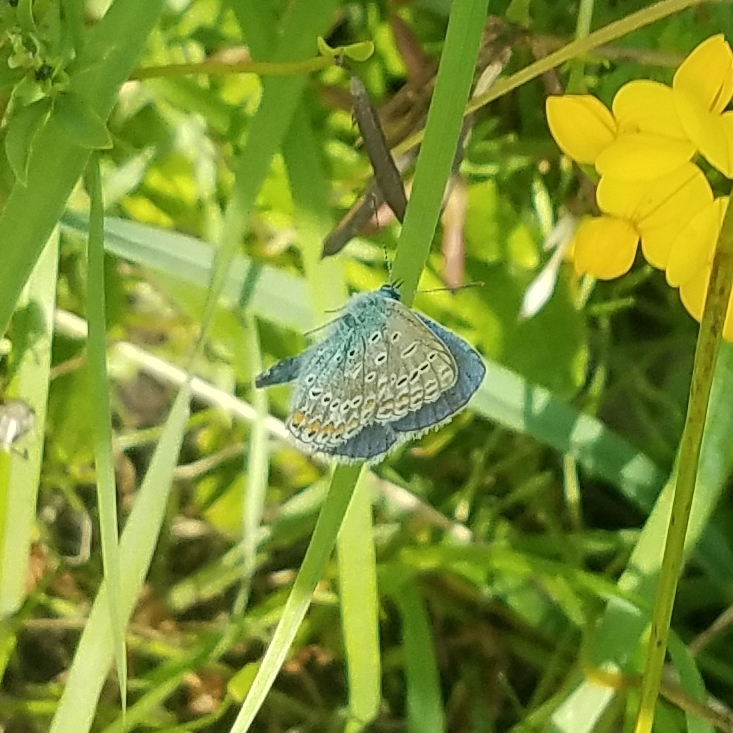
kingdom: Animalia
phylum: Arthropoda
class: Insecta
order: Lepidoptera
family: Lycaenidae
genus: Polyommatus
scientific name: Polyommatus icarus
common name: Common blue
